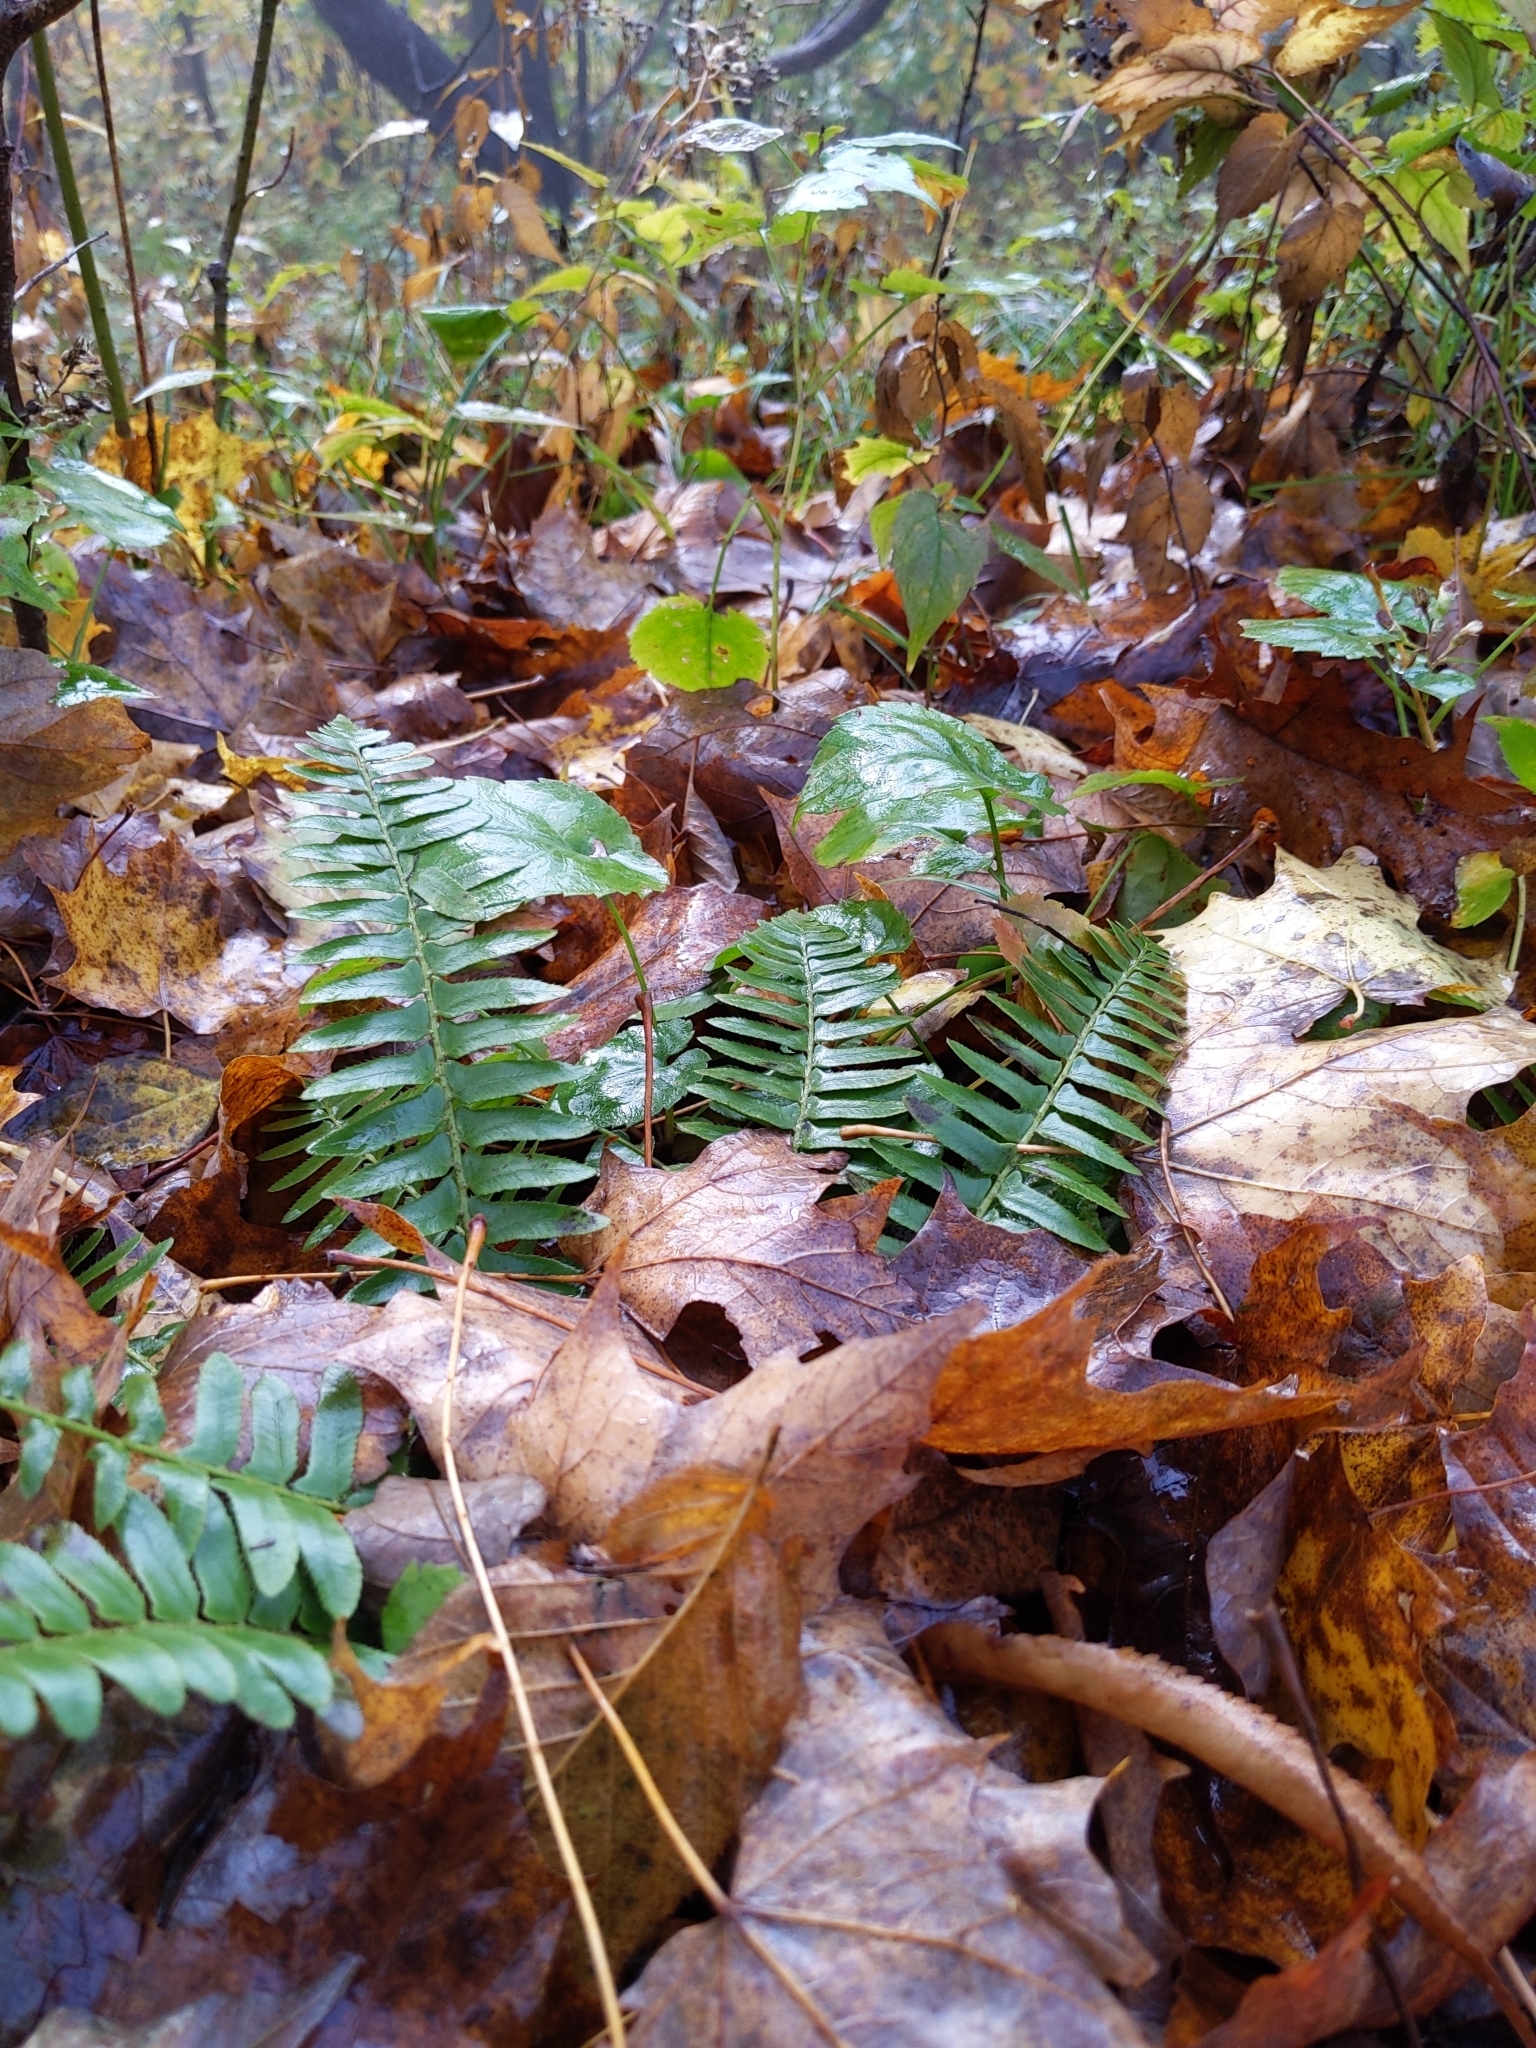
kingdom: Plantae
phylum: Tracheophyta
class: Polypodiopsida
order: Polypodiales
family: Dryopteridaceae
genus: Polystichum
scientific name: Polystichum acrostichoides
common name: Christmas fern
